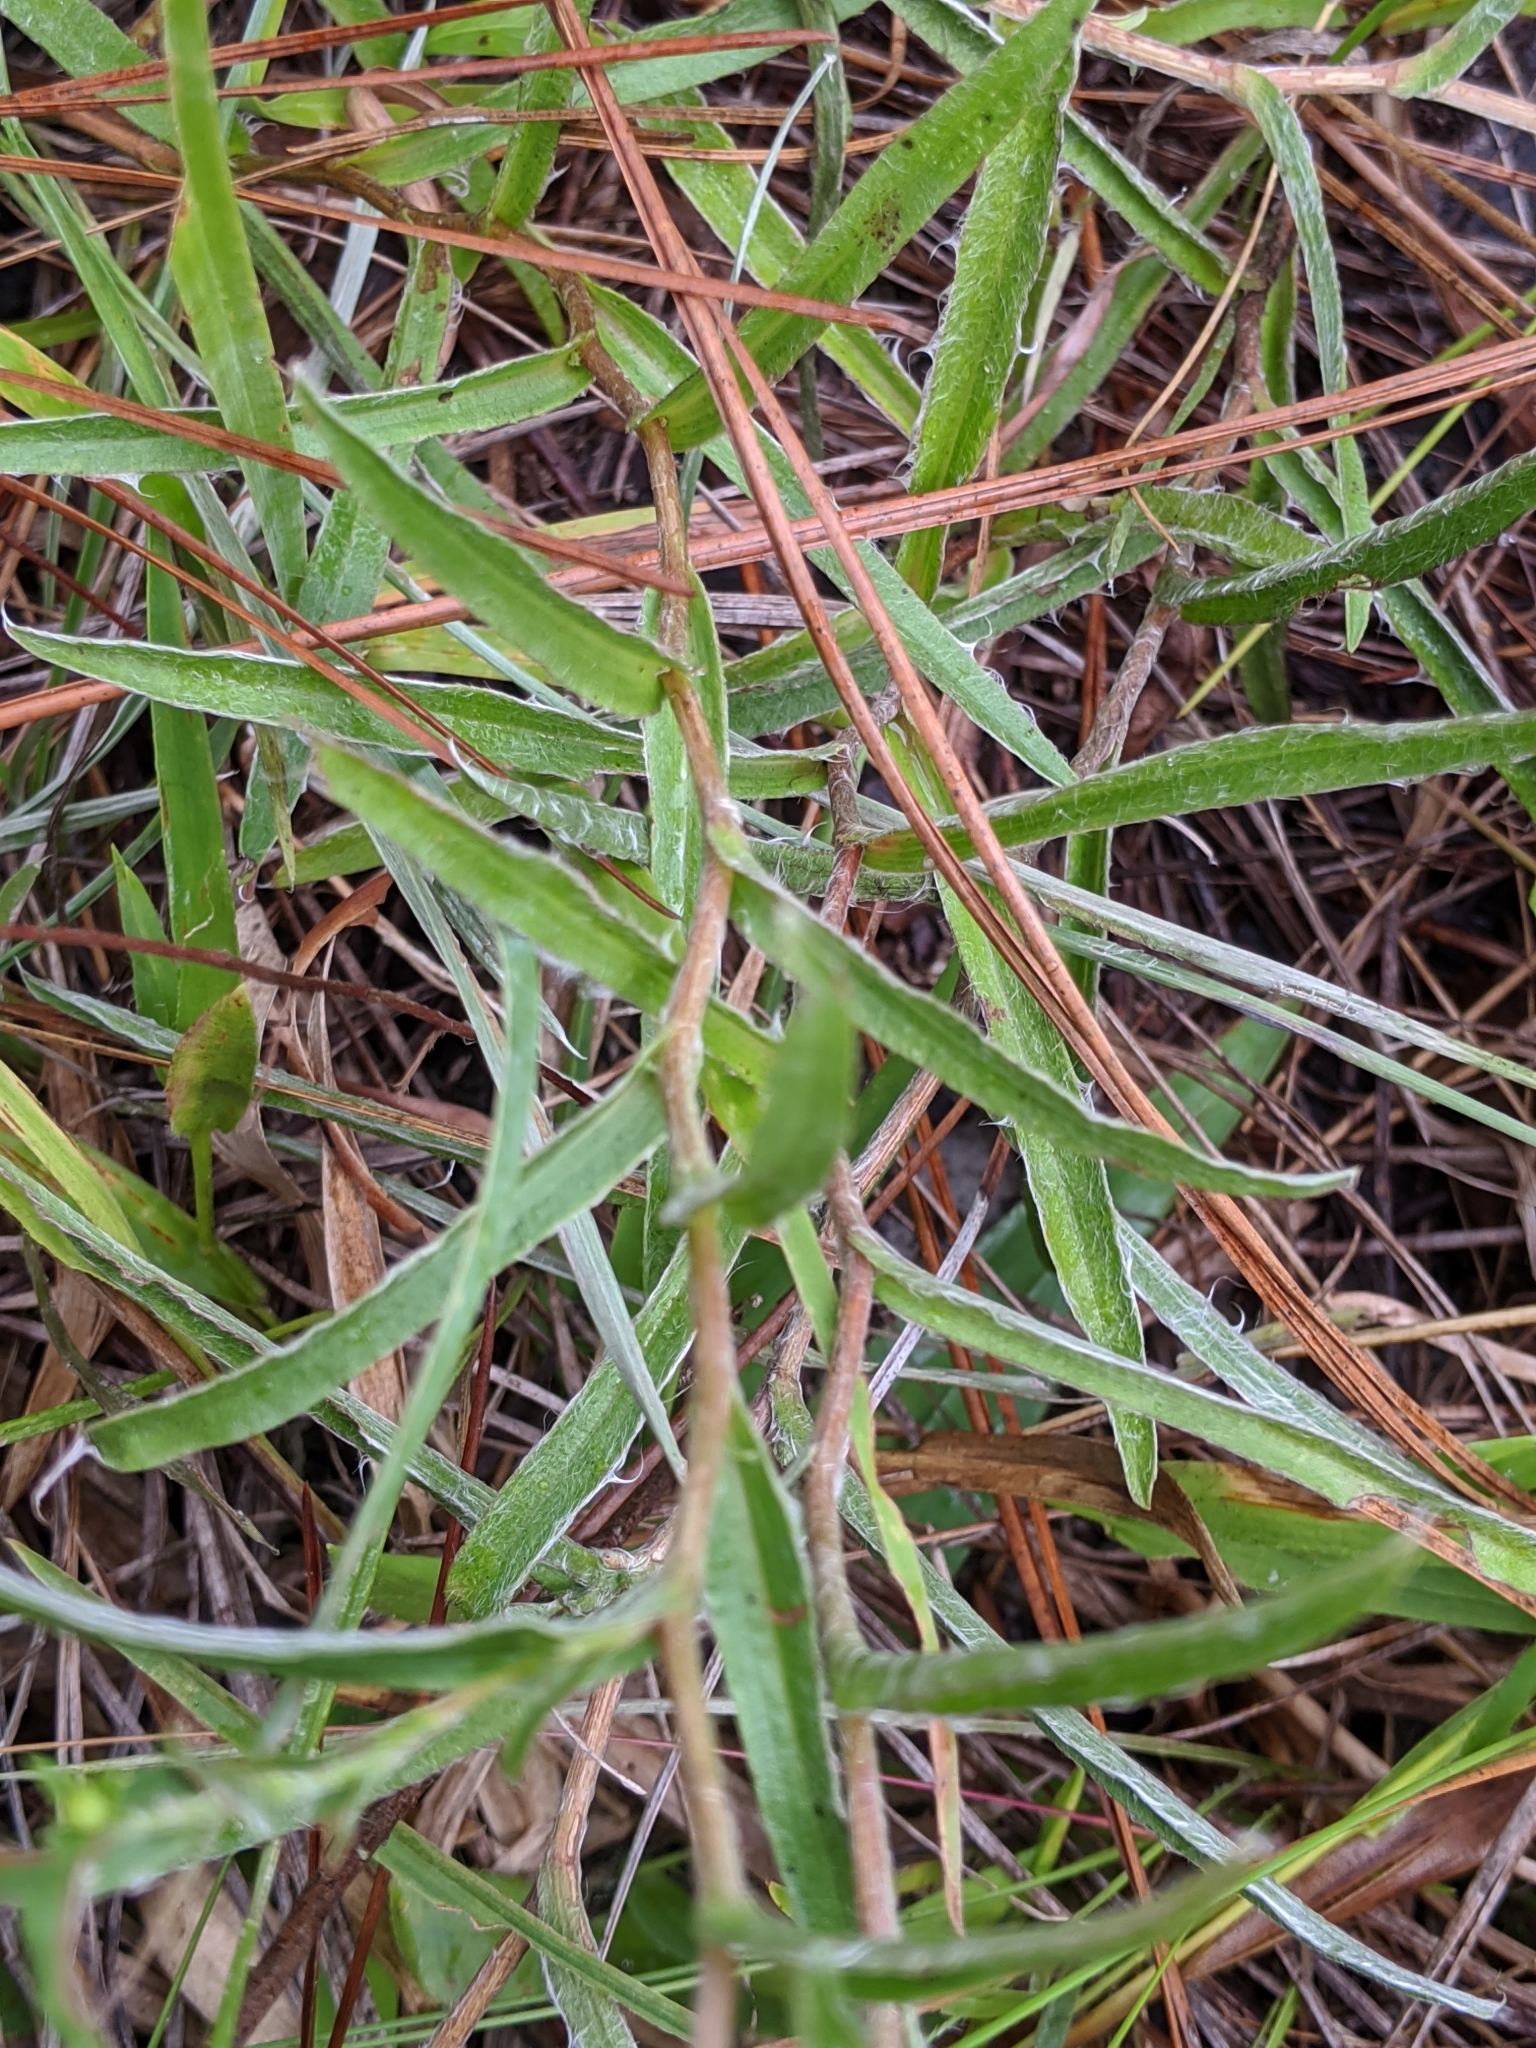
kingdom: Plantae
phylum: Tracheophyta
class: Magnoliopsida
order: Asterales
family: Asteraceae
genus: Pityopsis
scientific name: Pityopsis flexuosa
